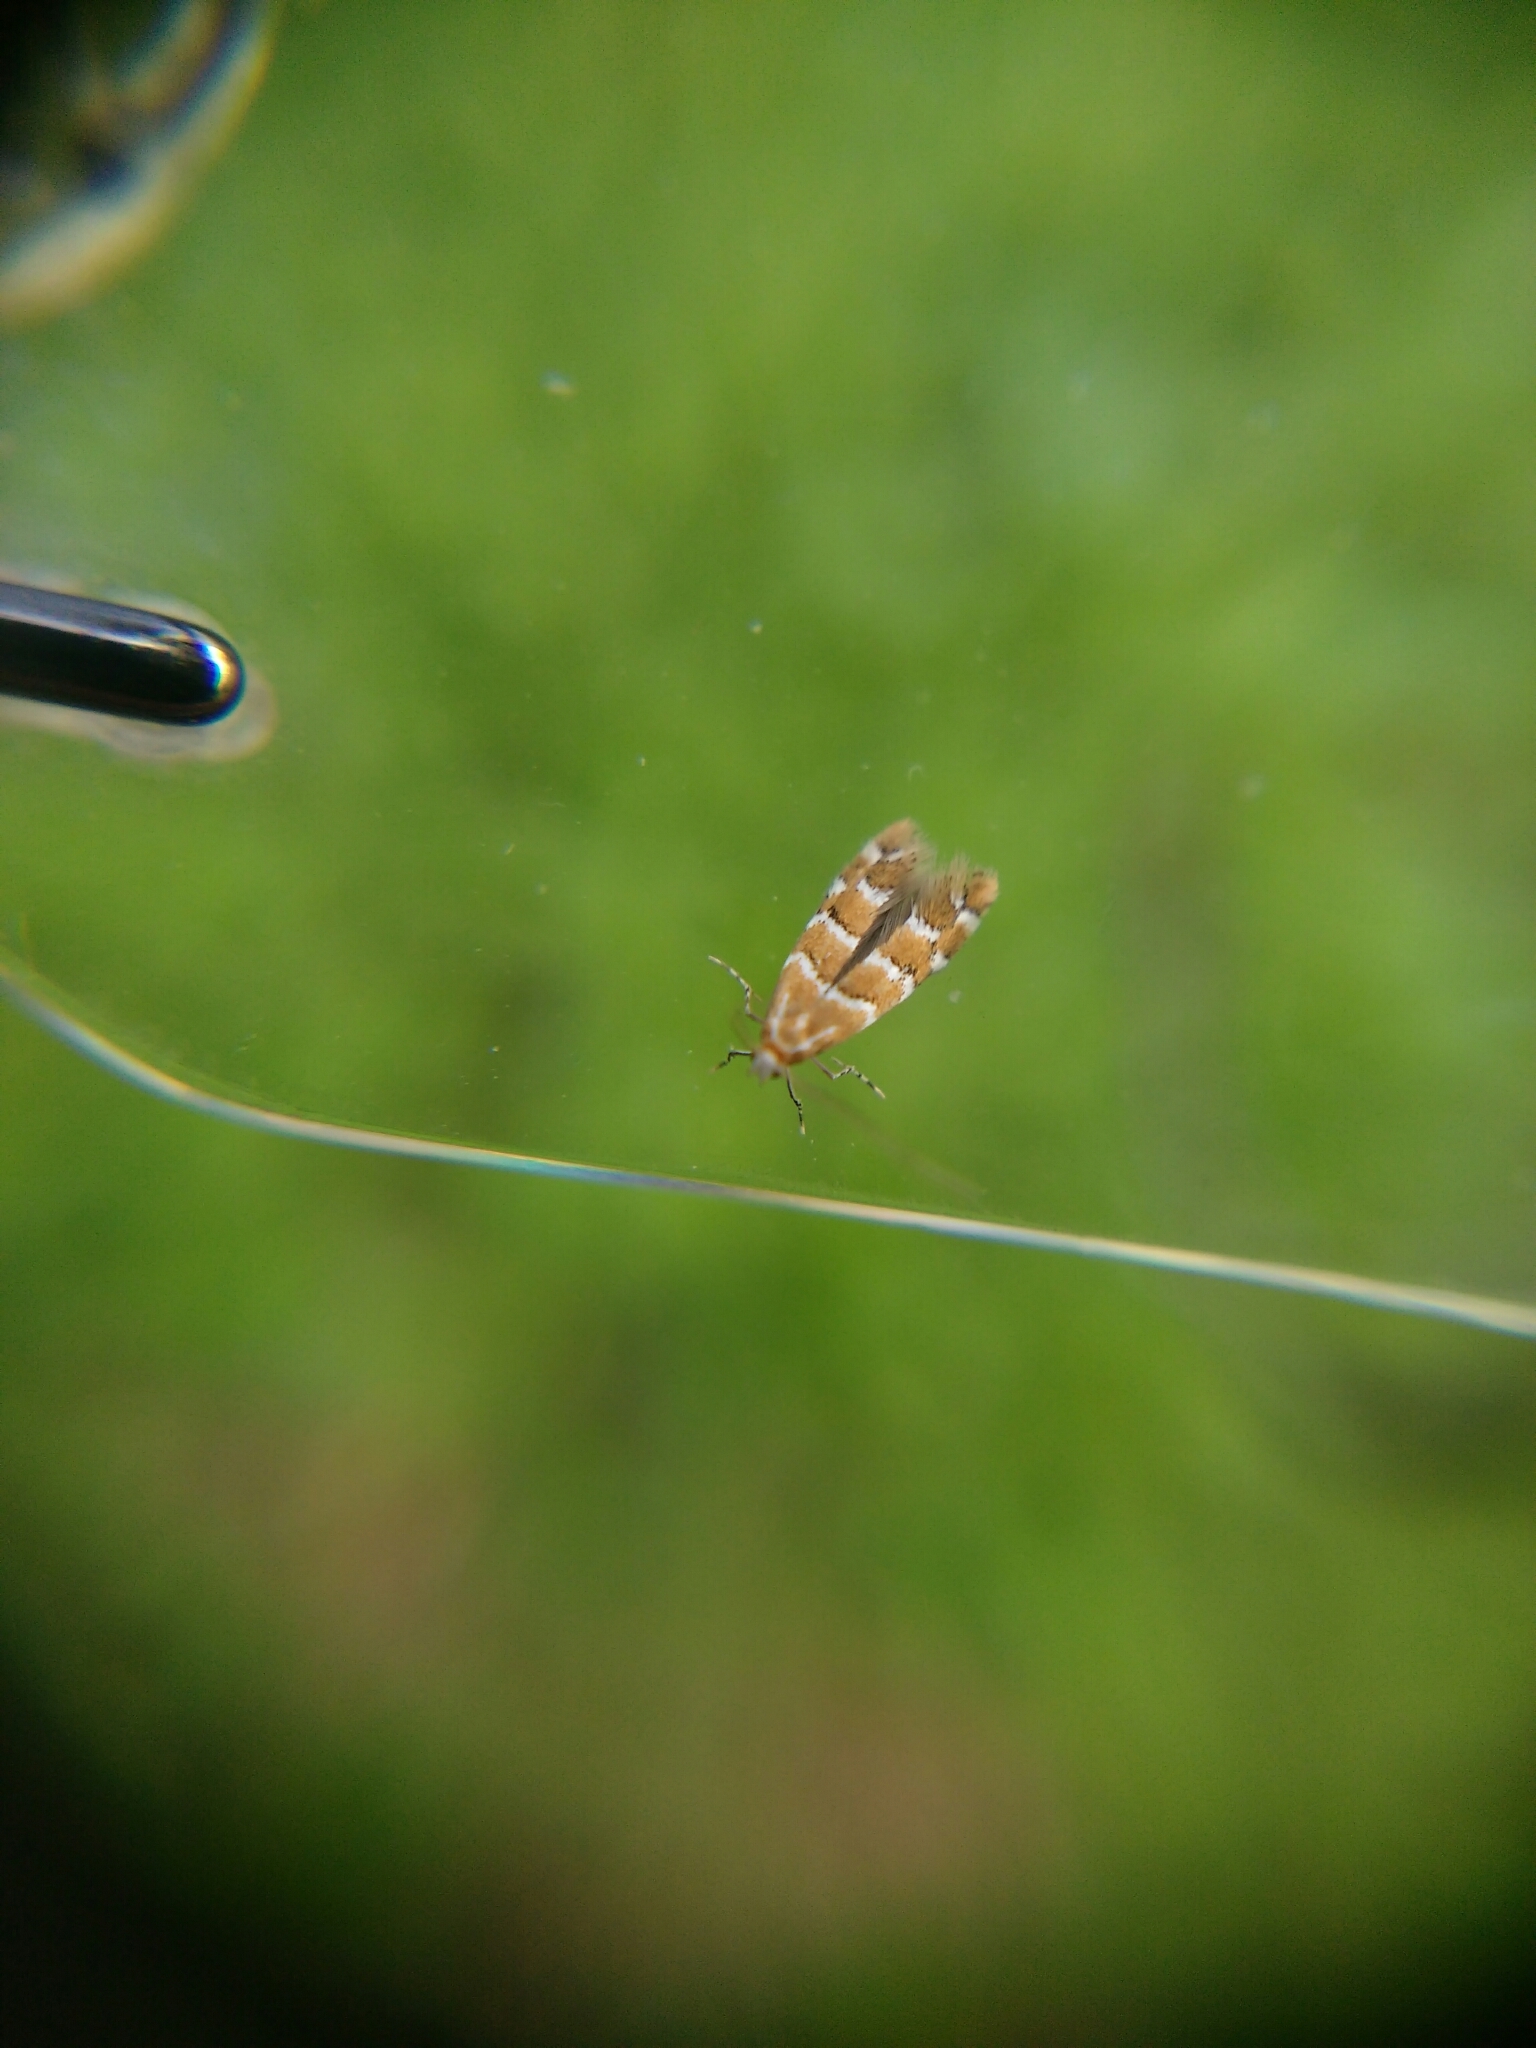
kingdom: Animalia
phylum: Arthropoda
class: Insecta
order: Lepidoptera
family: Gracillariidae
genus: Cameraria
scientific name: Cameraria ohridella
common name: Horse-chestnut leaf-miner
